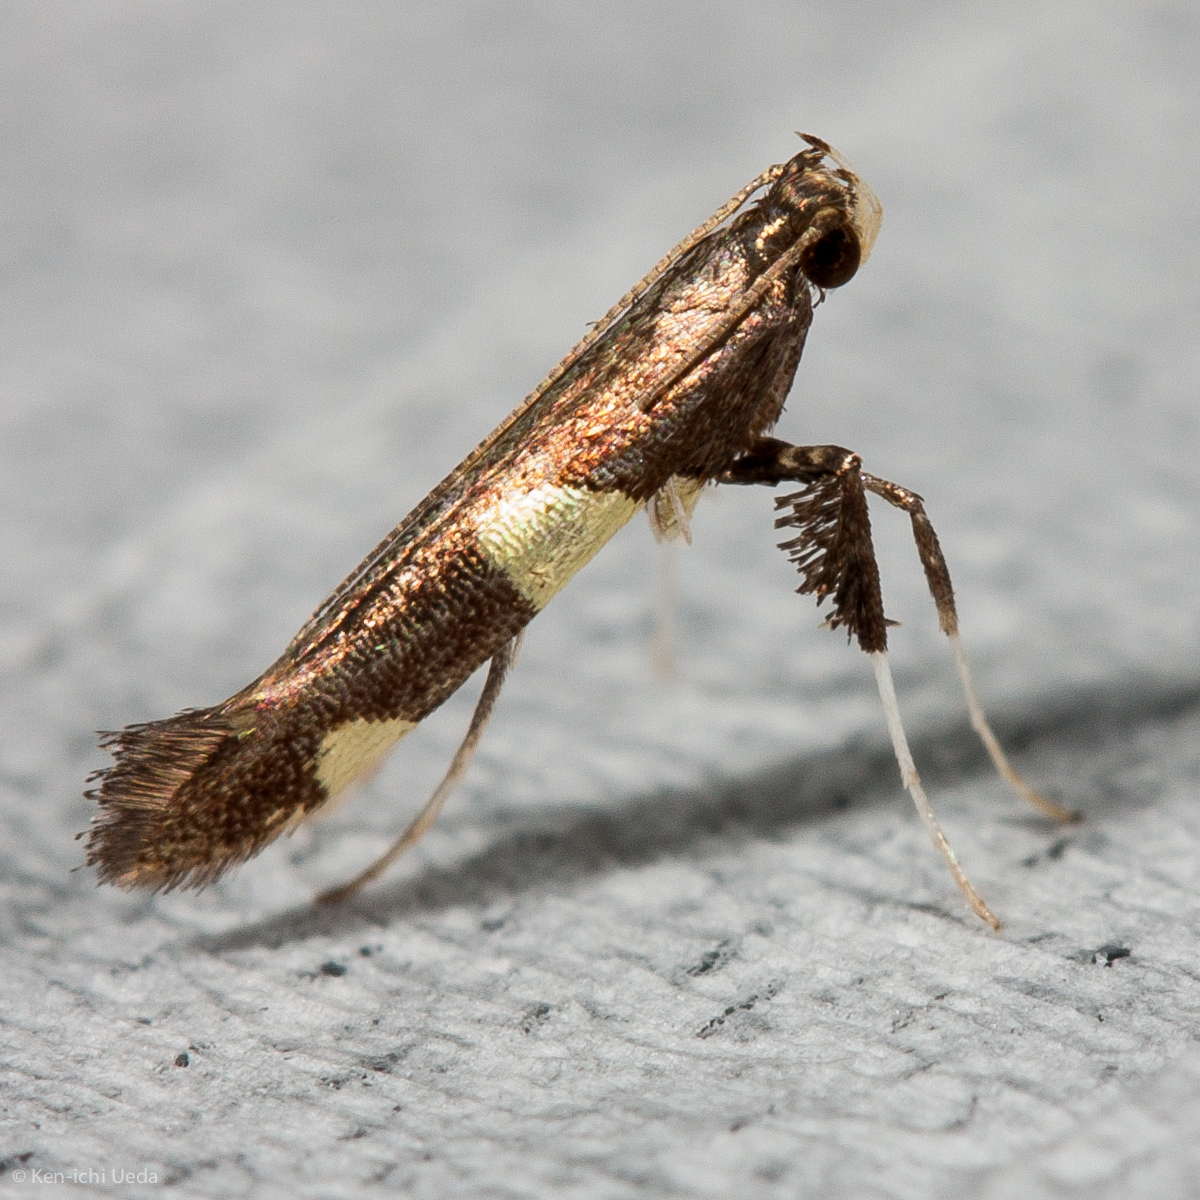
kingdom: Animalia
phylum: Arthropoda
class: Insecta
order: Lepidoptera
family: Gracillariidae
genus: Caloptilia
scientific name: Caloptilia vacciniella
